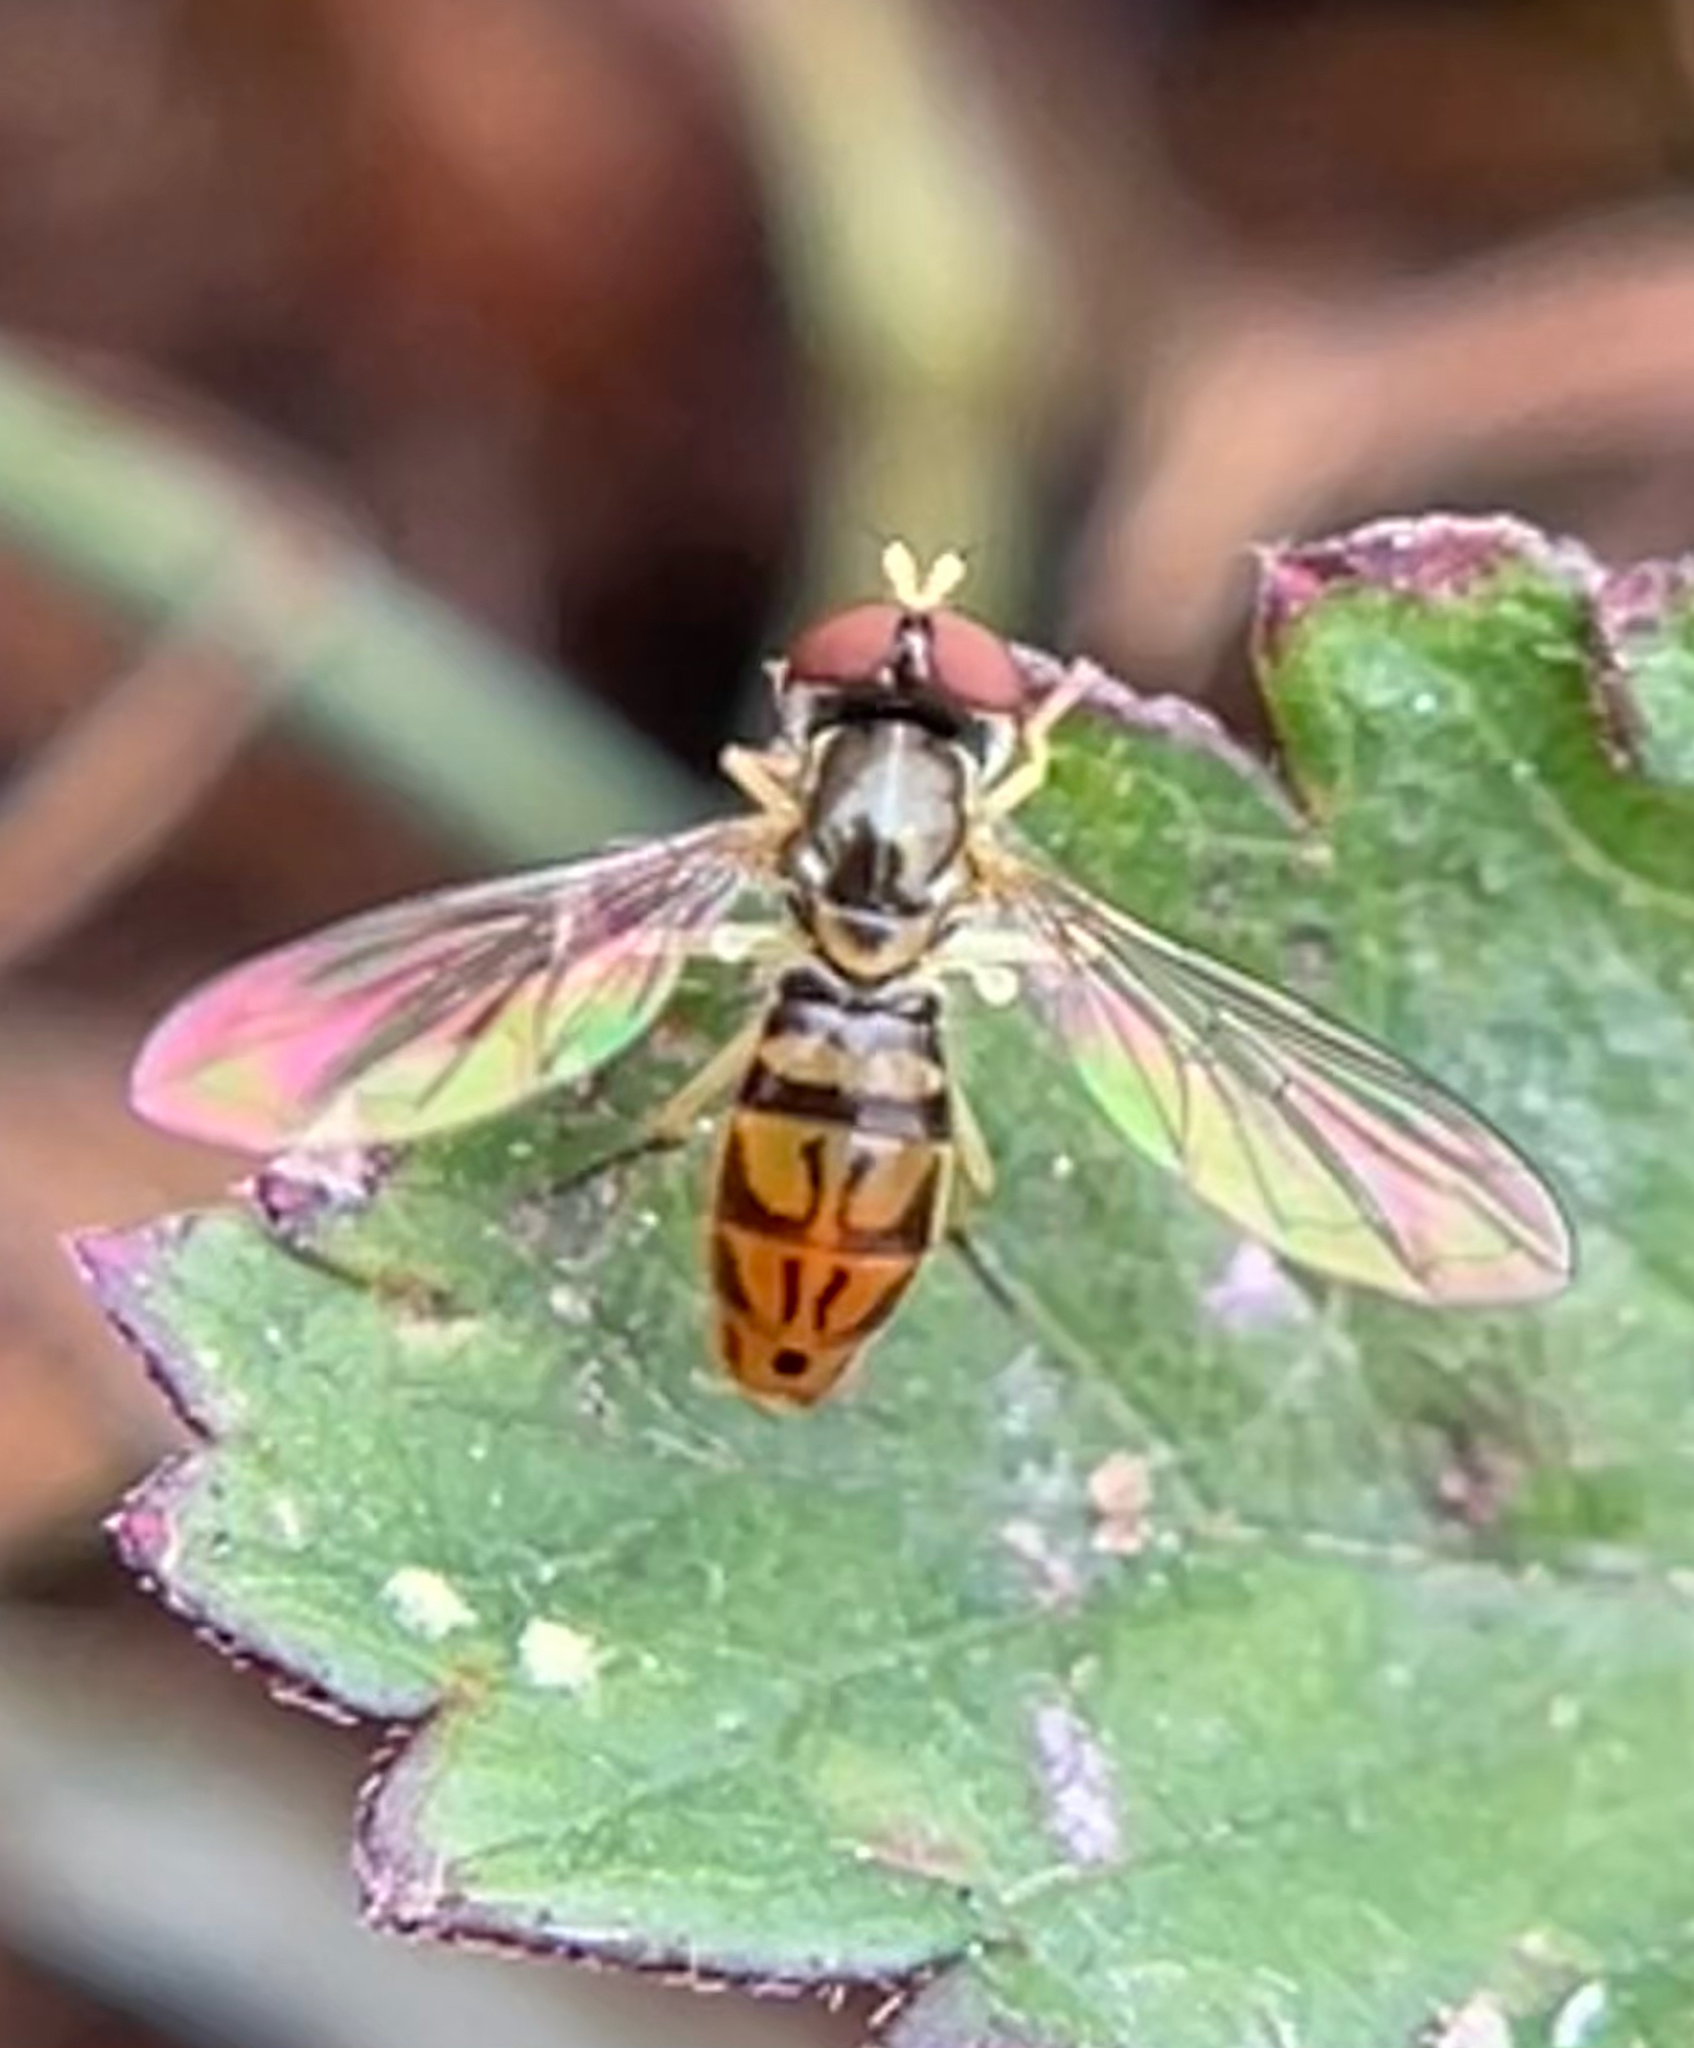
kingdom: Animalia
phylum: Arthropoda
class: Insecta
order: Diptera
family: Syrphidae
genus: Toxomerus
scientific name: Toxomerus marginatus
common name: Syrphid fly
